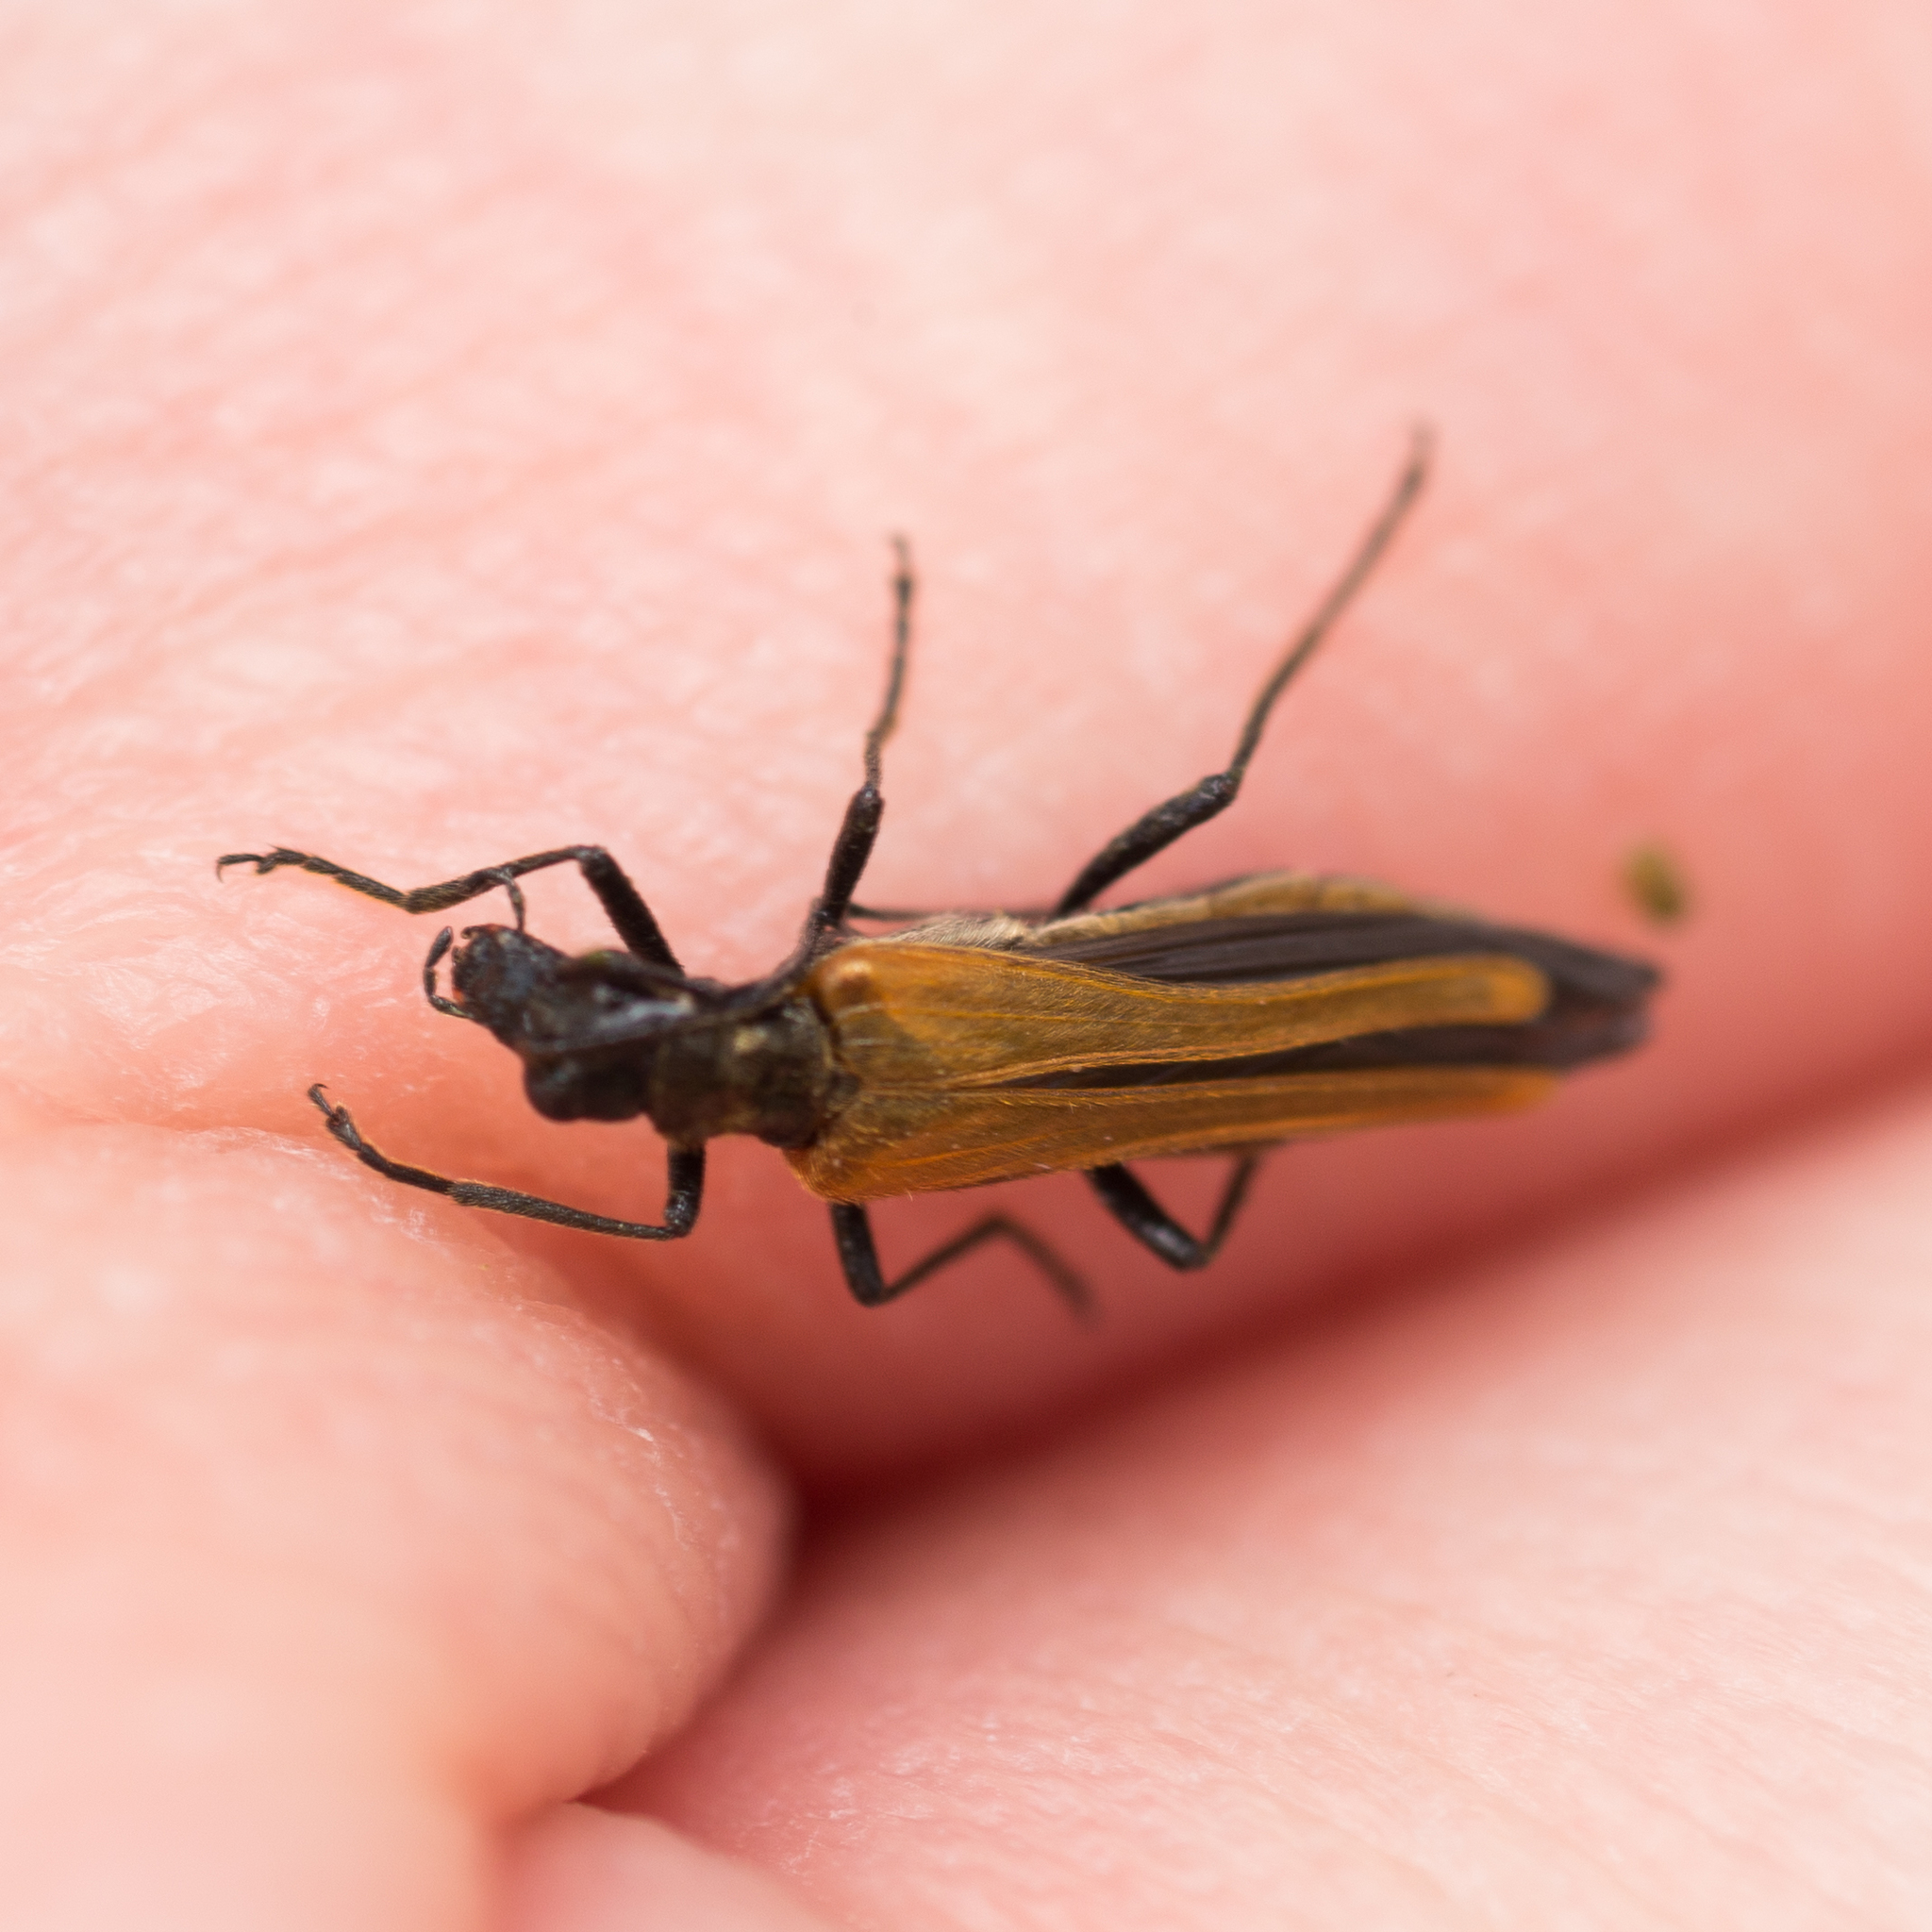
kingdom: Animalia
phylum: Arthropoda
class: Insecta
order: Coleoptera
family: Oedemeridae
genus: Oedemera
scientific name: Oedemera femorata
